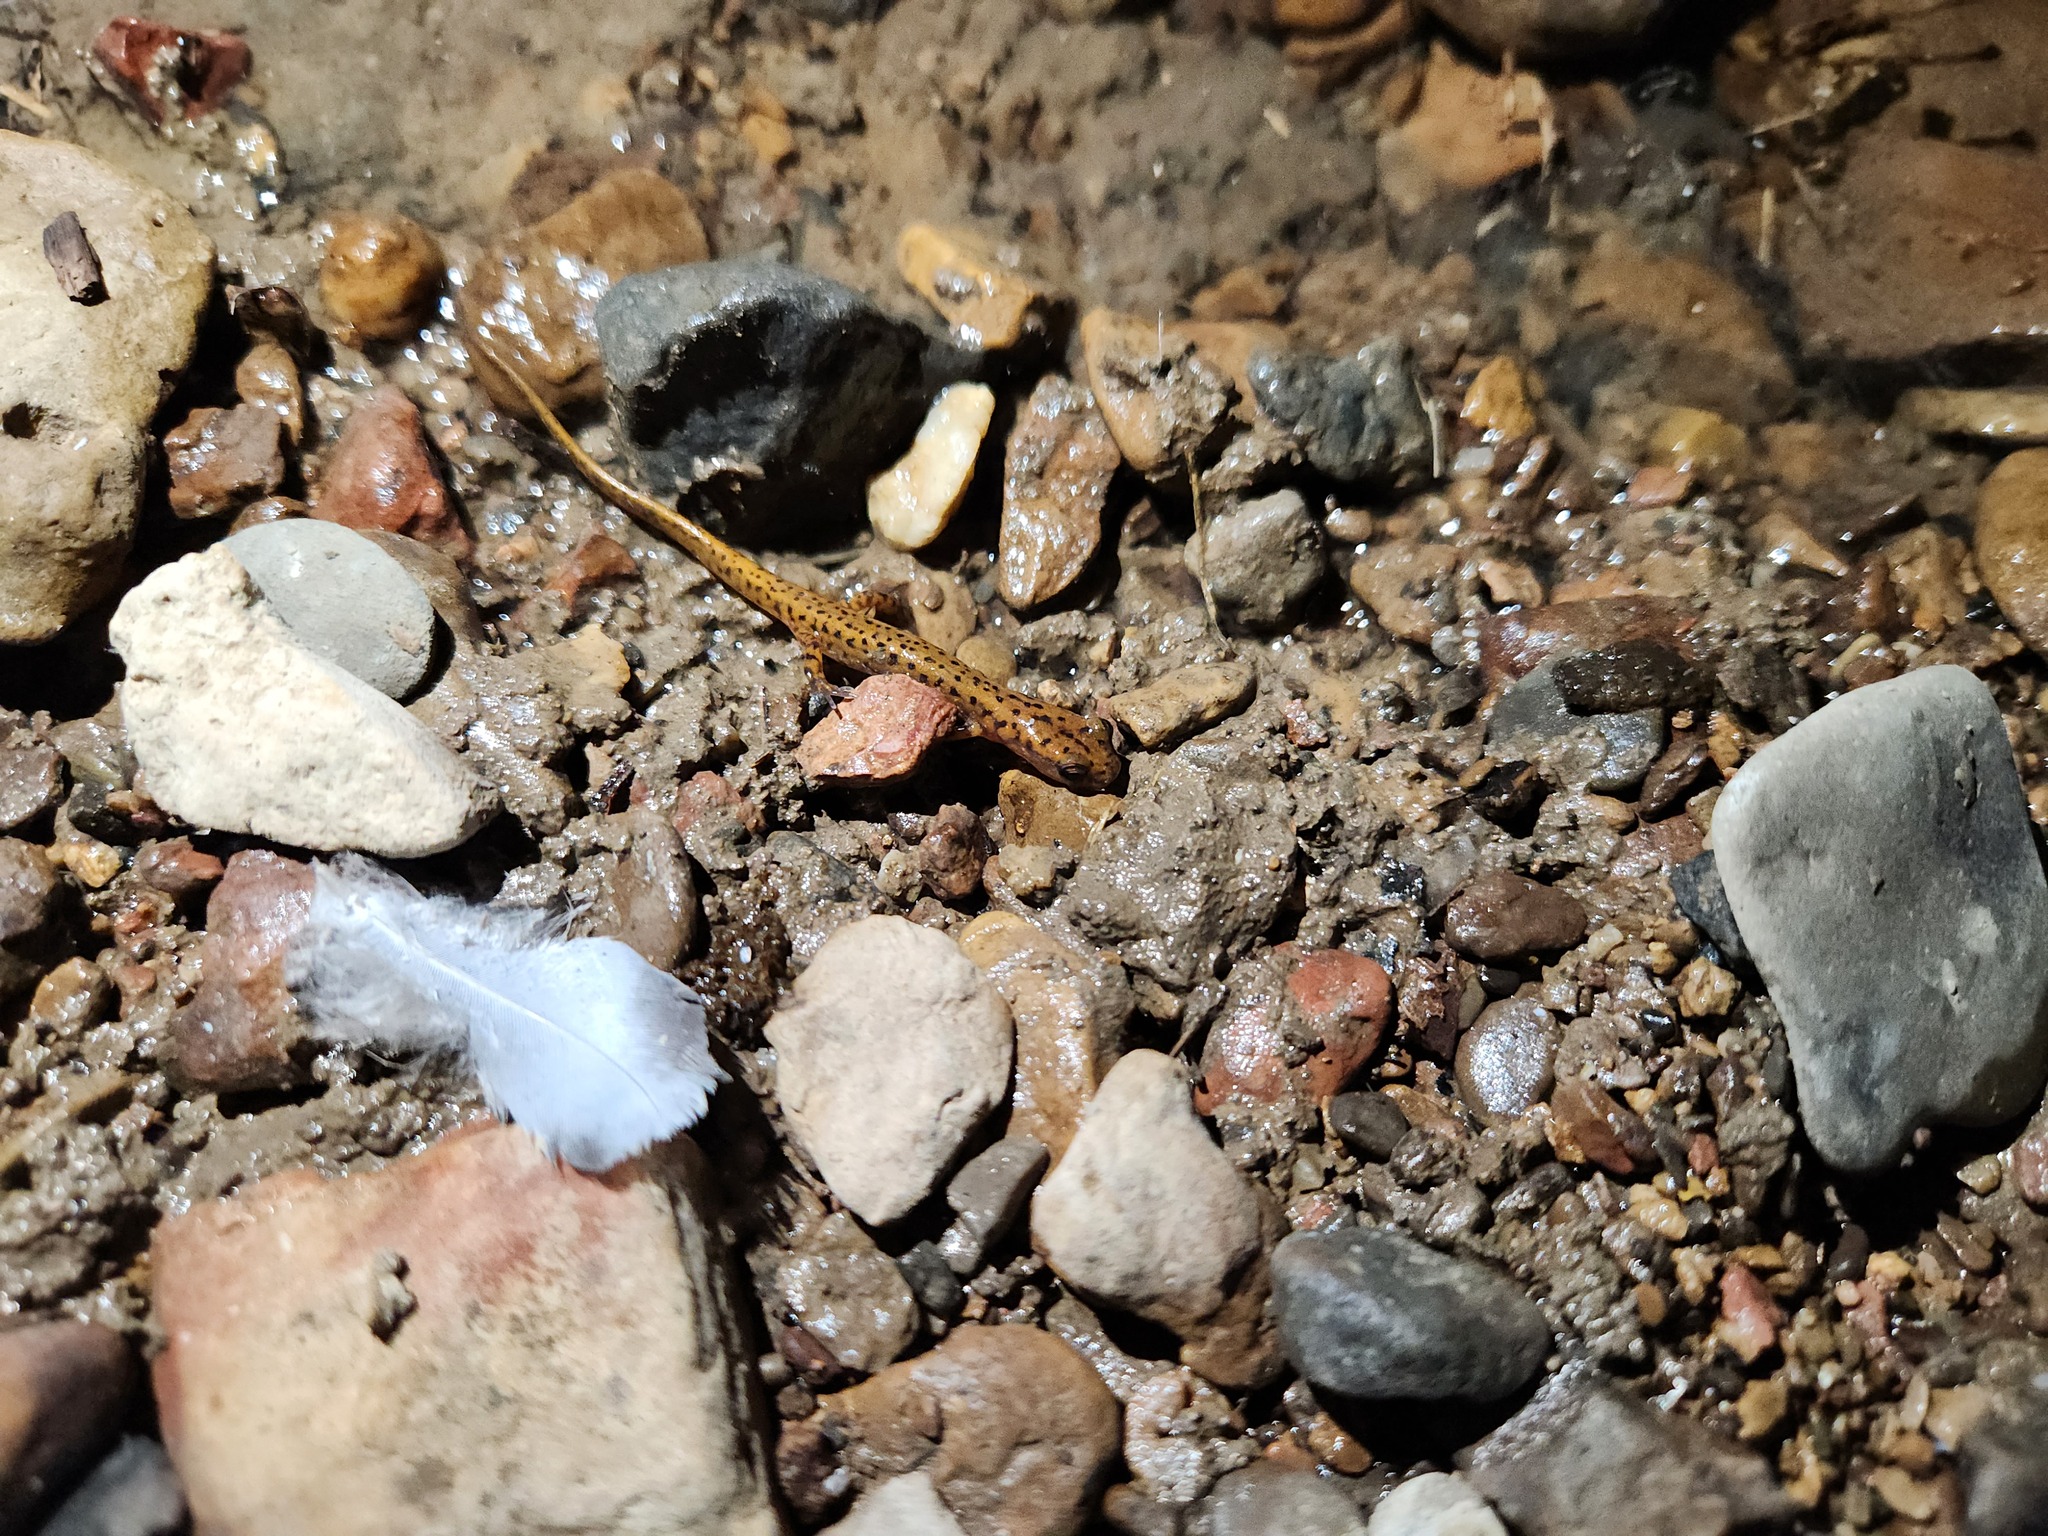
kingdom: Animalia
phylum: Chordata
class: Amphibia
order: Caudata
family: Plethodontidae
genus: Eurycea
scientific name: Eurycea lucifuga
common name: Cave salamander
